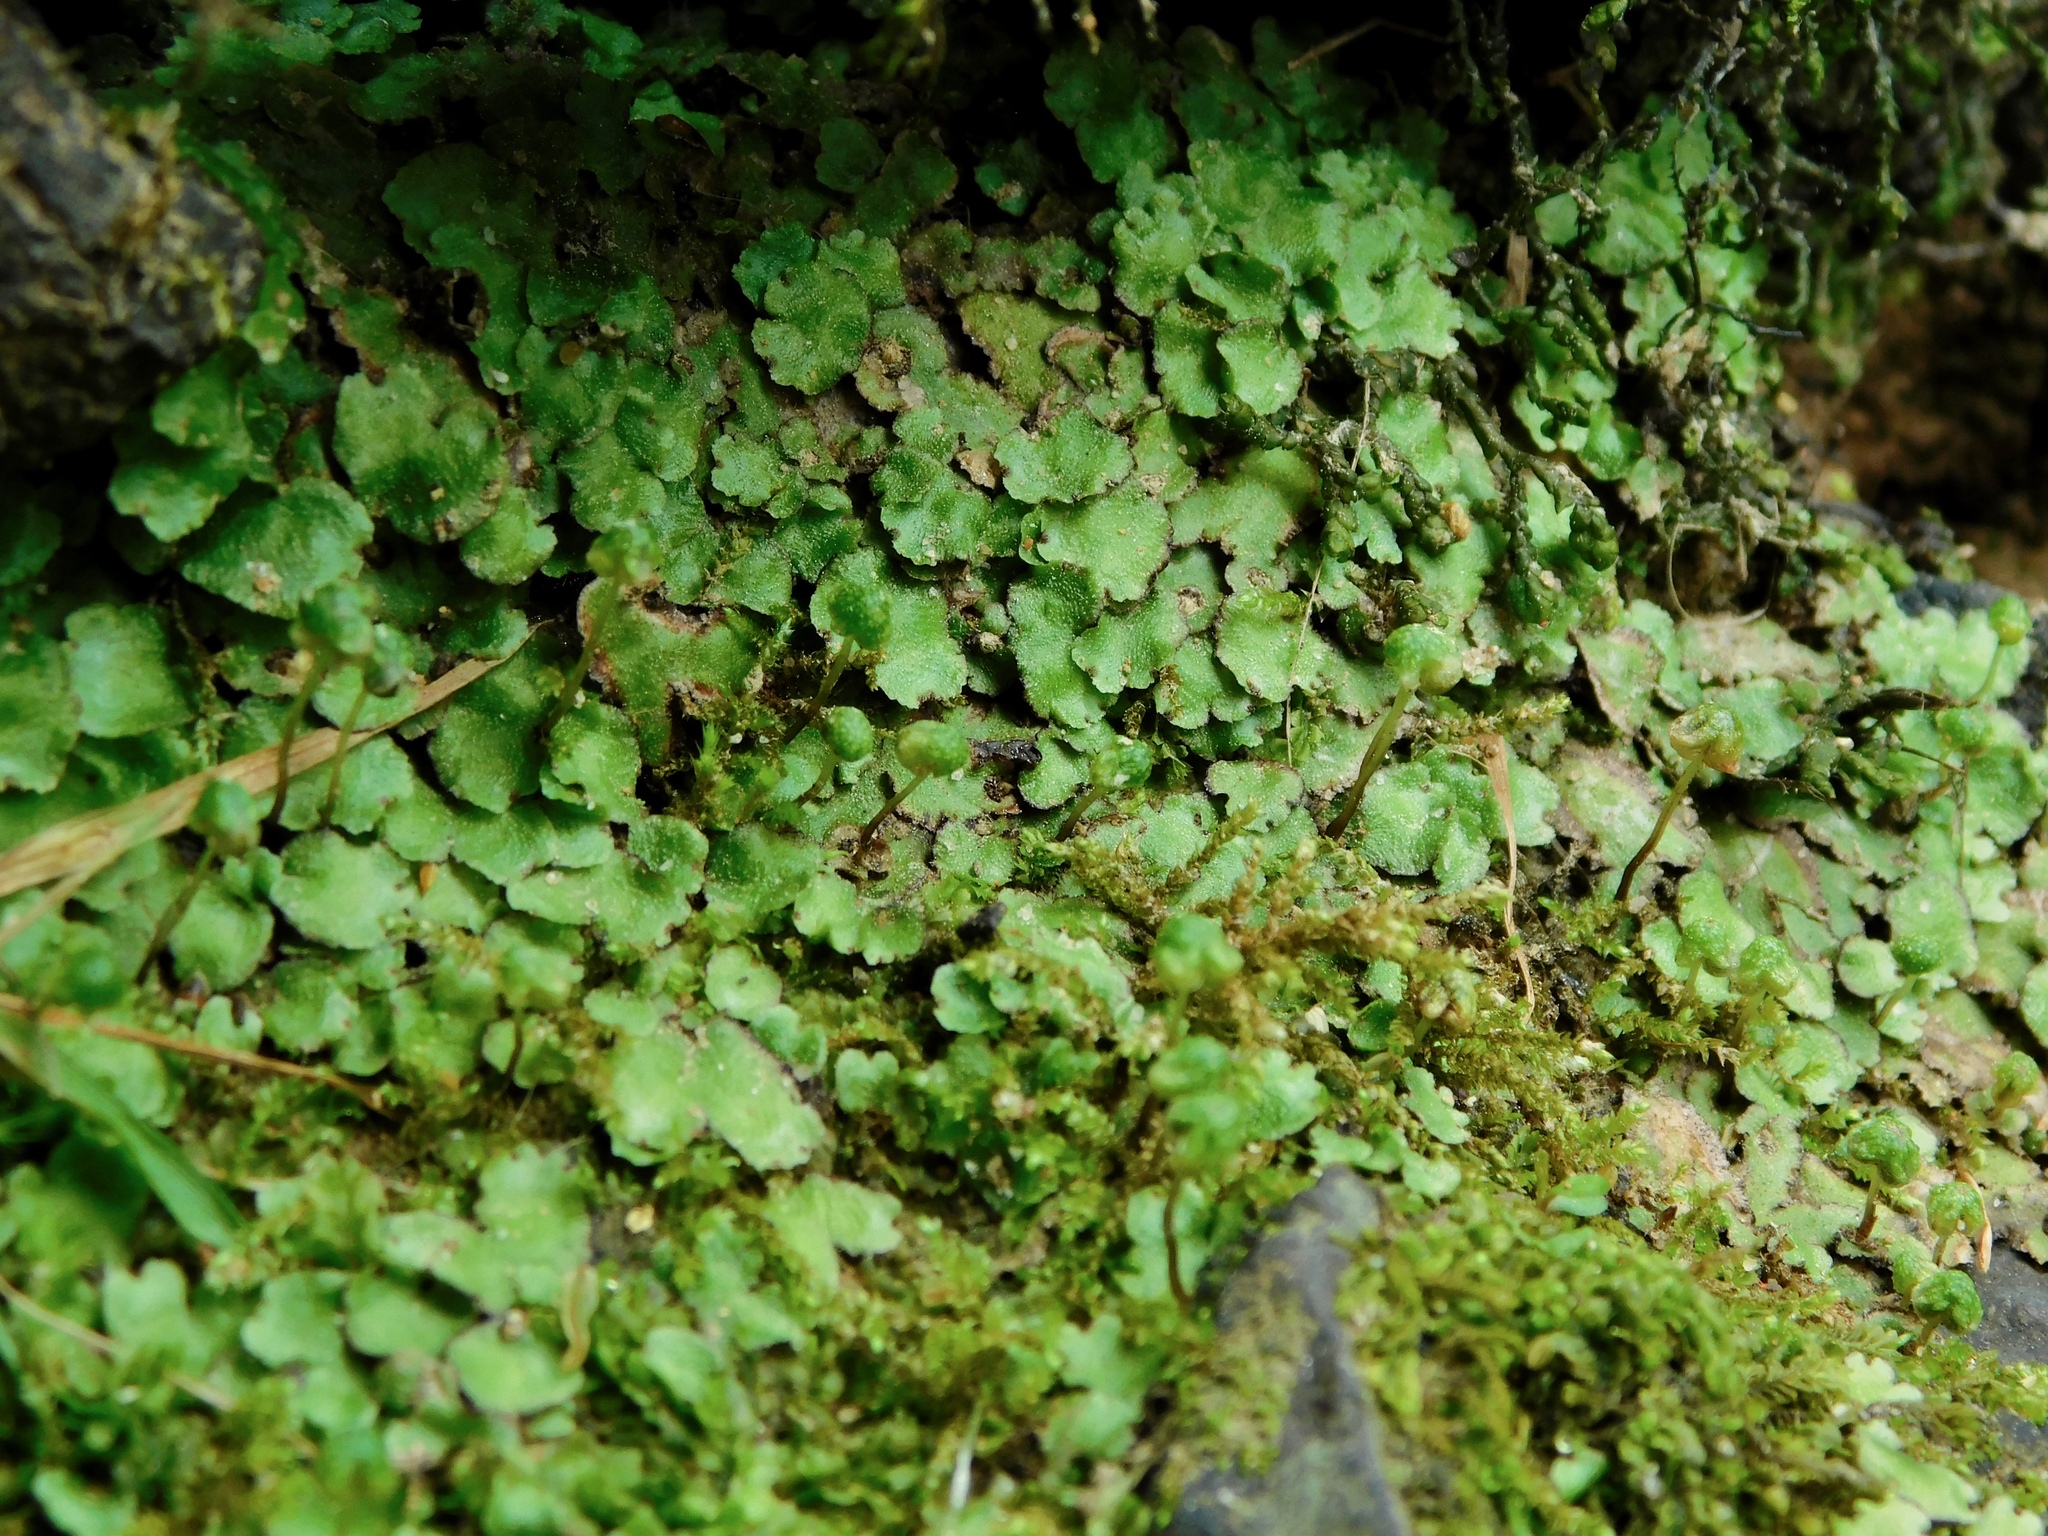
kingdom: Plantae
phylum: Marchantiophyta
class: Marchantiopsida
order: Marchantiales
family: Aytoniaceae
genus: Reboulia
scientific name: Reboulia hemisphaerica
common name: Purple-margined liverwort
